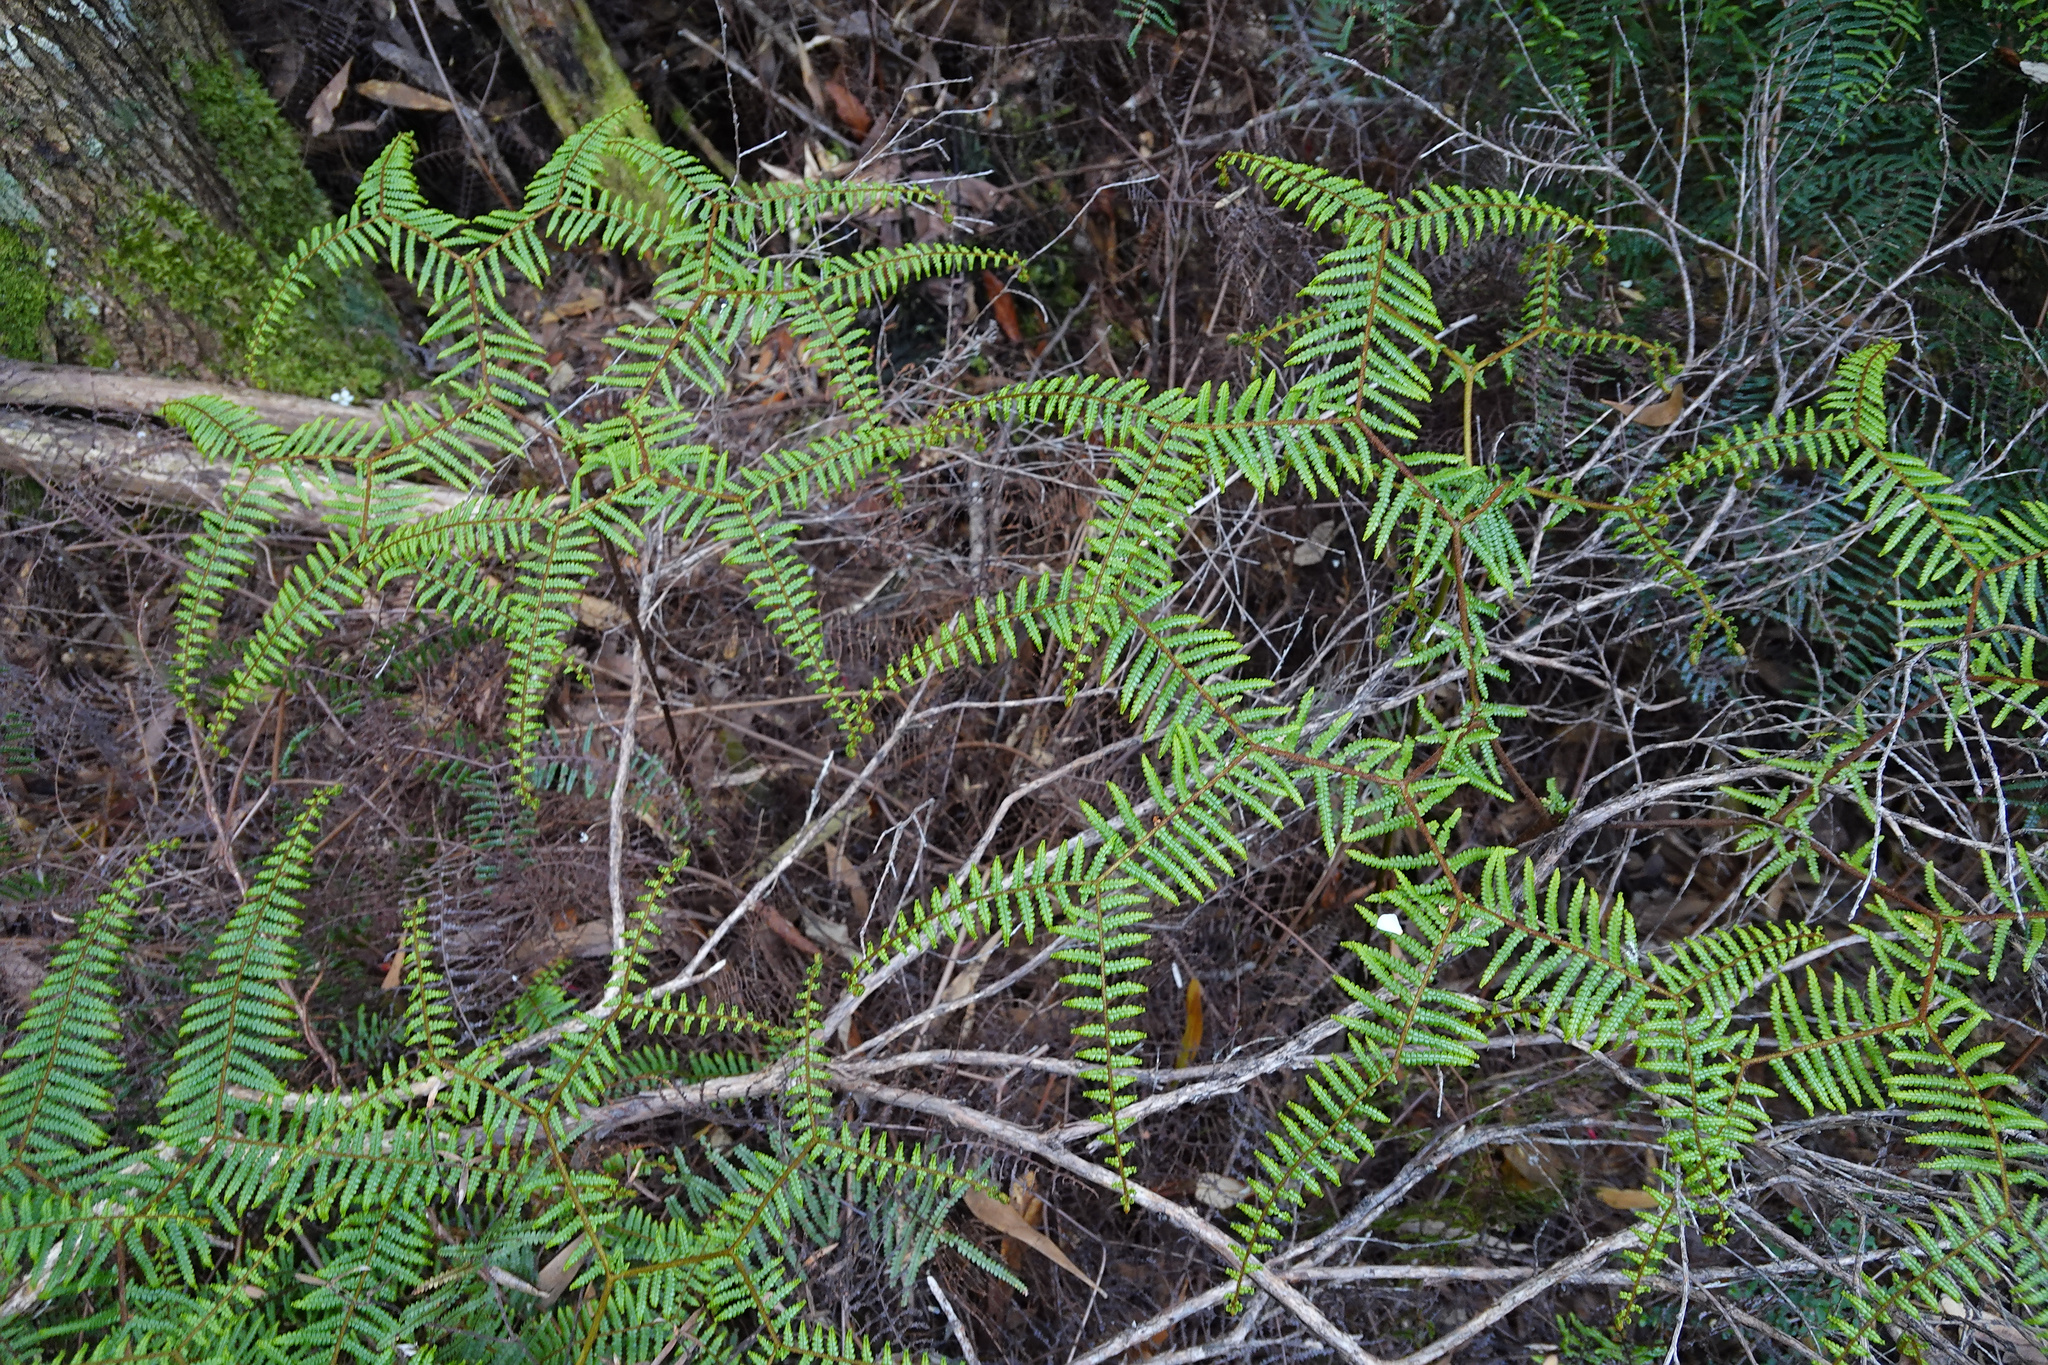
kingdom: Plantae
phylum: Tracheophyta
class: Polypodiopsida
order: Gleicheniales
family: Gleicheniaceae
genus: Gleichenia
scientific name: Gleichenia microphylla
